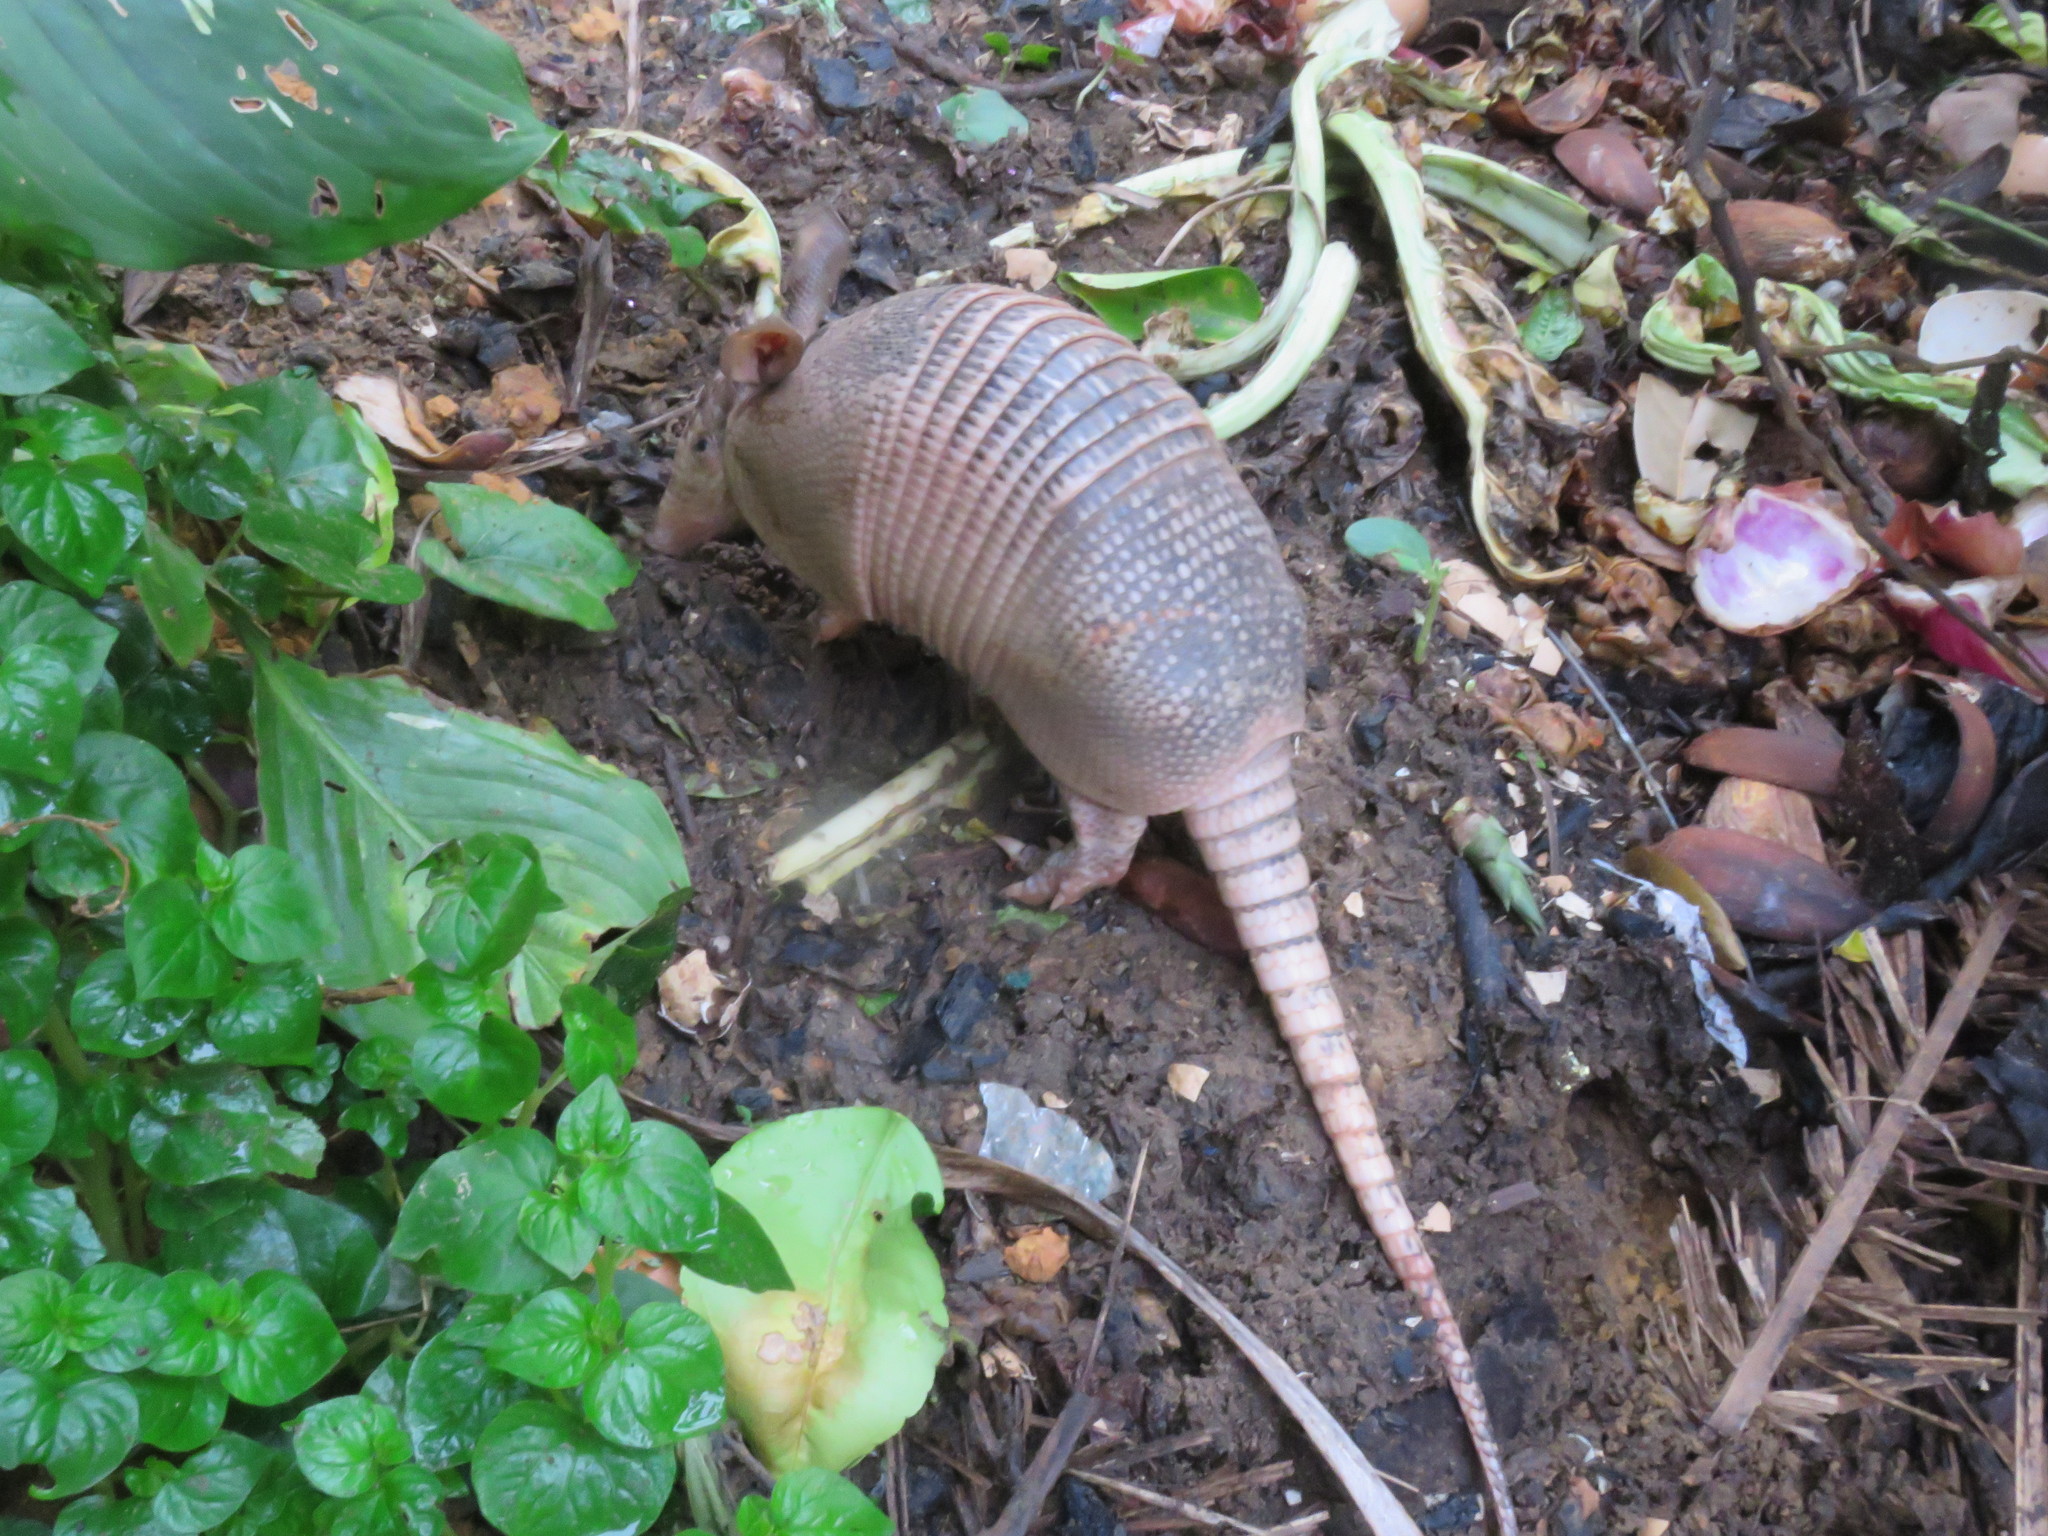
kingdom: Animalia
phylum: Chordata
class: Mammalia
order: Cingulata
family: Dasypodidae
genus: Dasypus
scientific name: Dasypus novemcinctus
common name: Nine-banded armadillo
